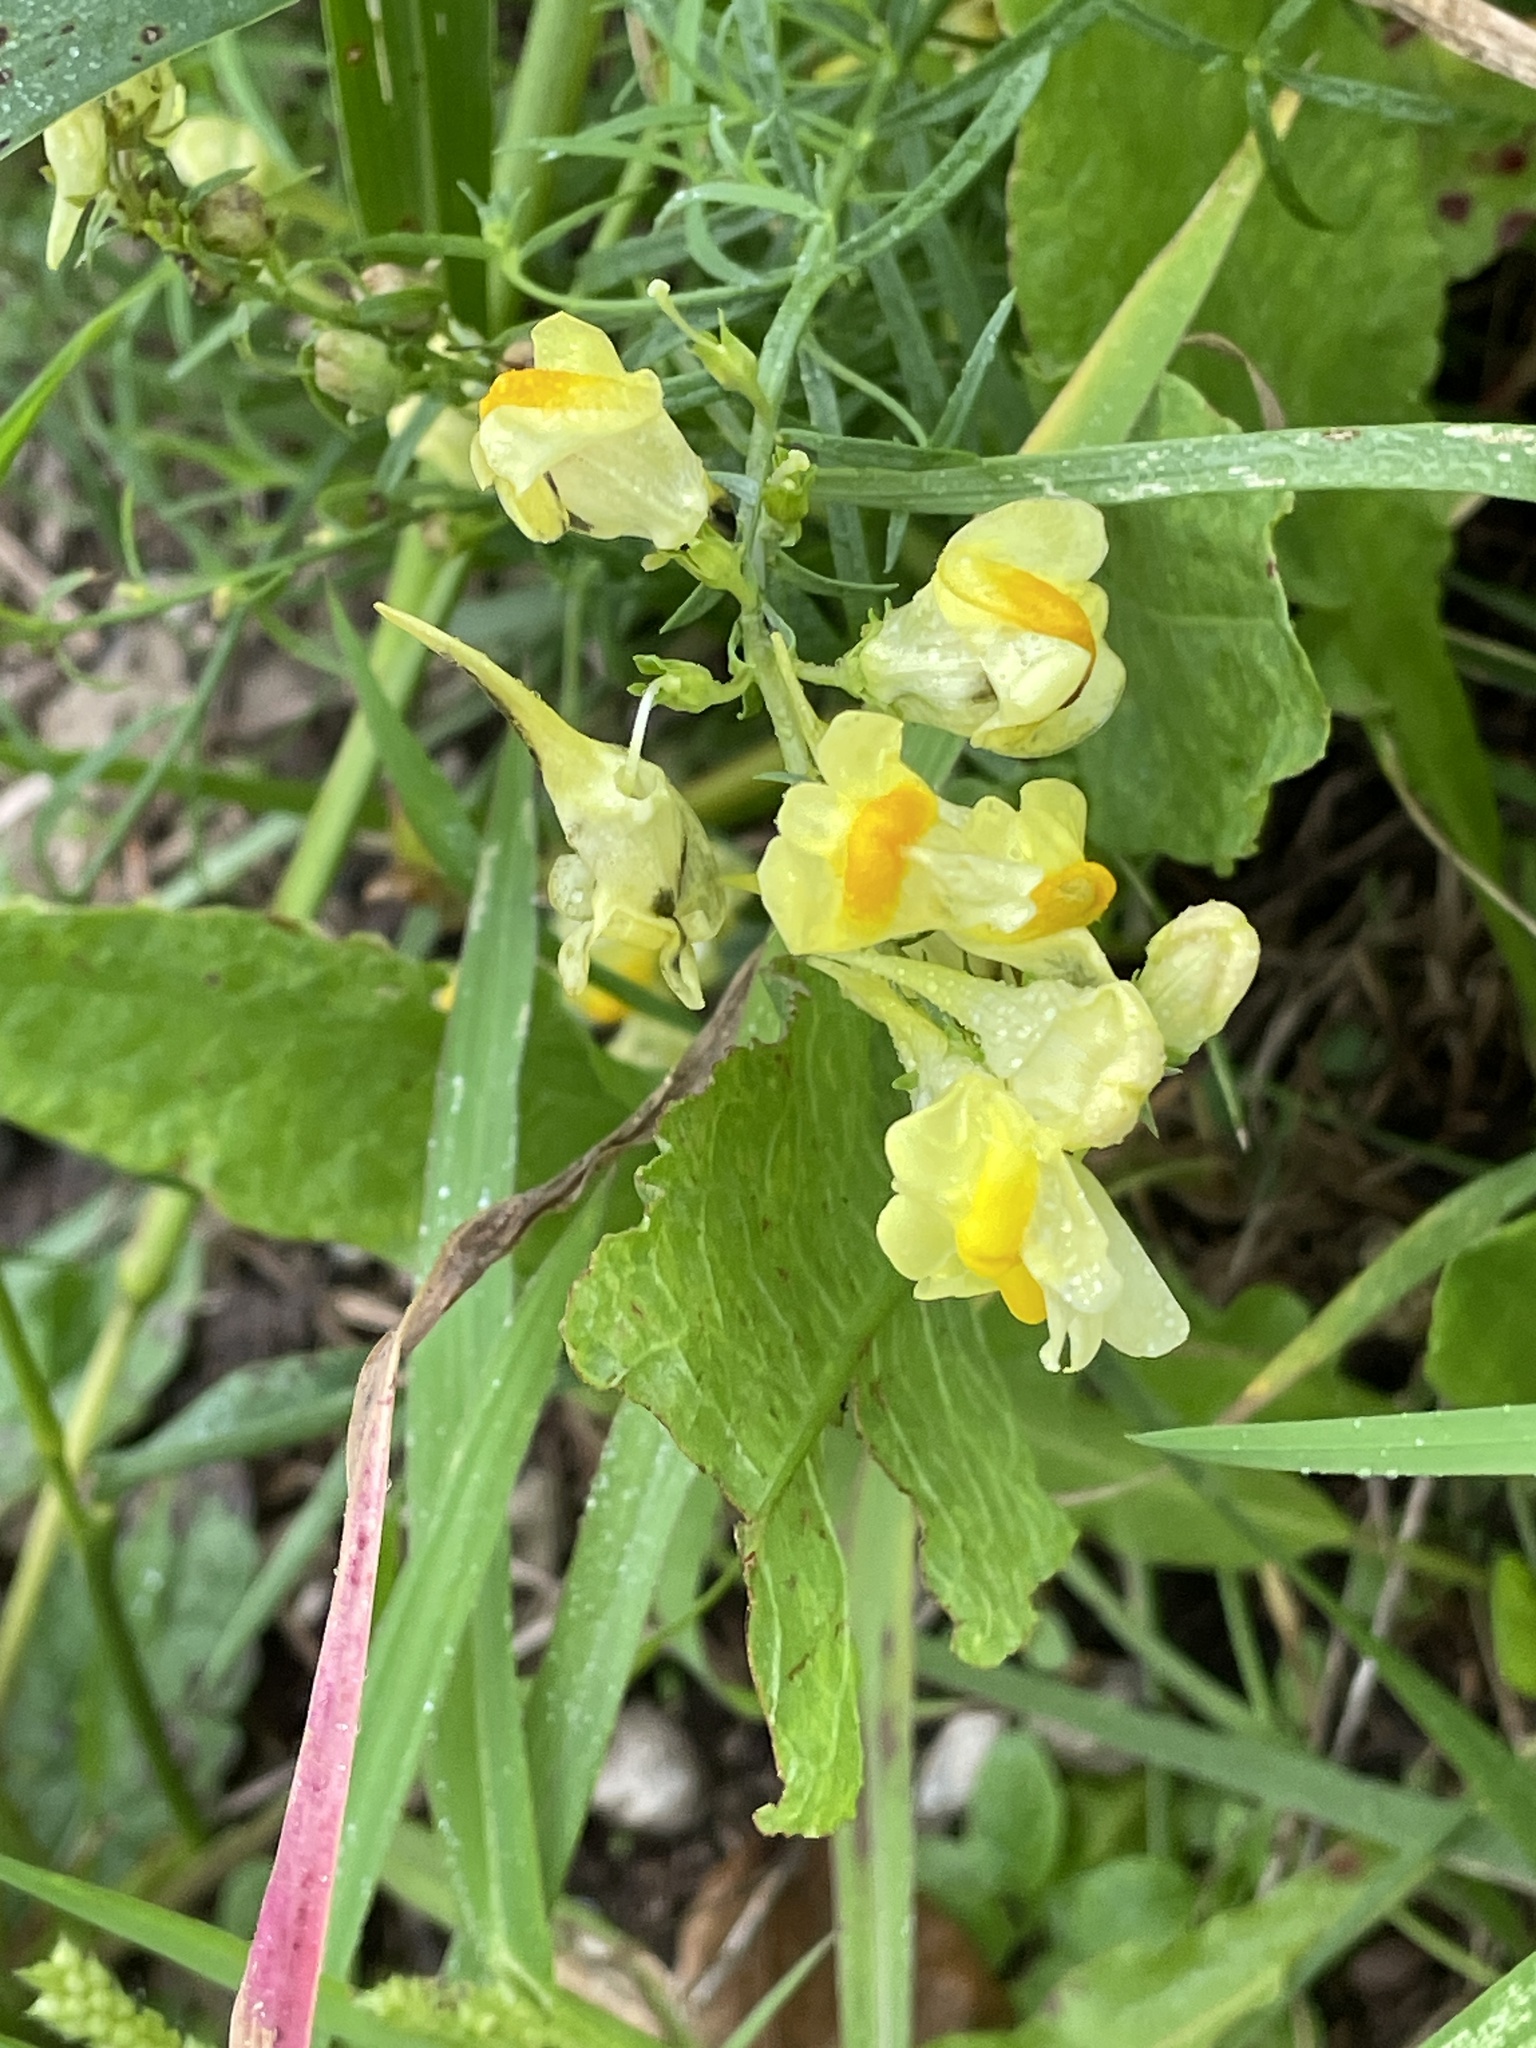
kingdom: Plantae
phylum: Tracheophyta
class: Magnoliopsida
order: Lamiales
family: Plantaginaceae
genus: Linaria
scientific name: Linaria vulgaris
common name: Butter and eggs
